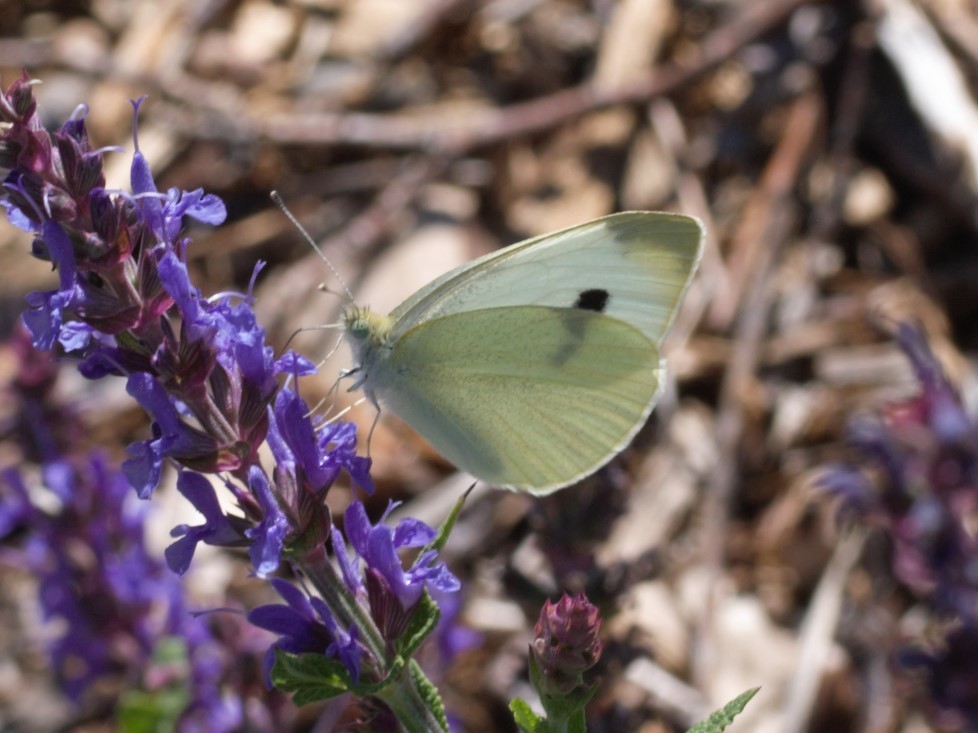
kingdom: Animalia
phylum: Arthropoda
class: Insecta
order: Lepidoptera
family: Pieridae
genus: Pieris
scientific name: Pieris rapae
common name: Small white
